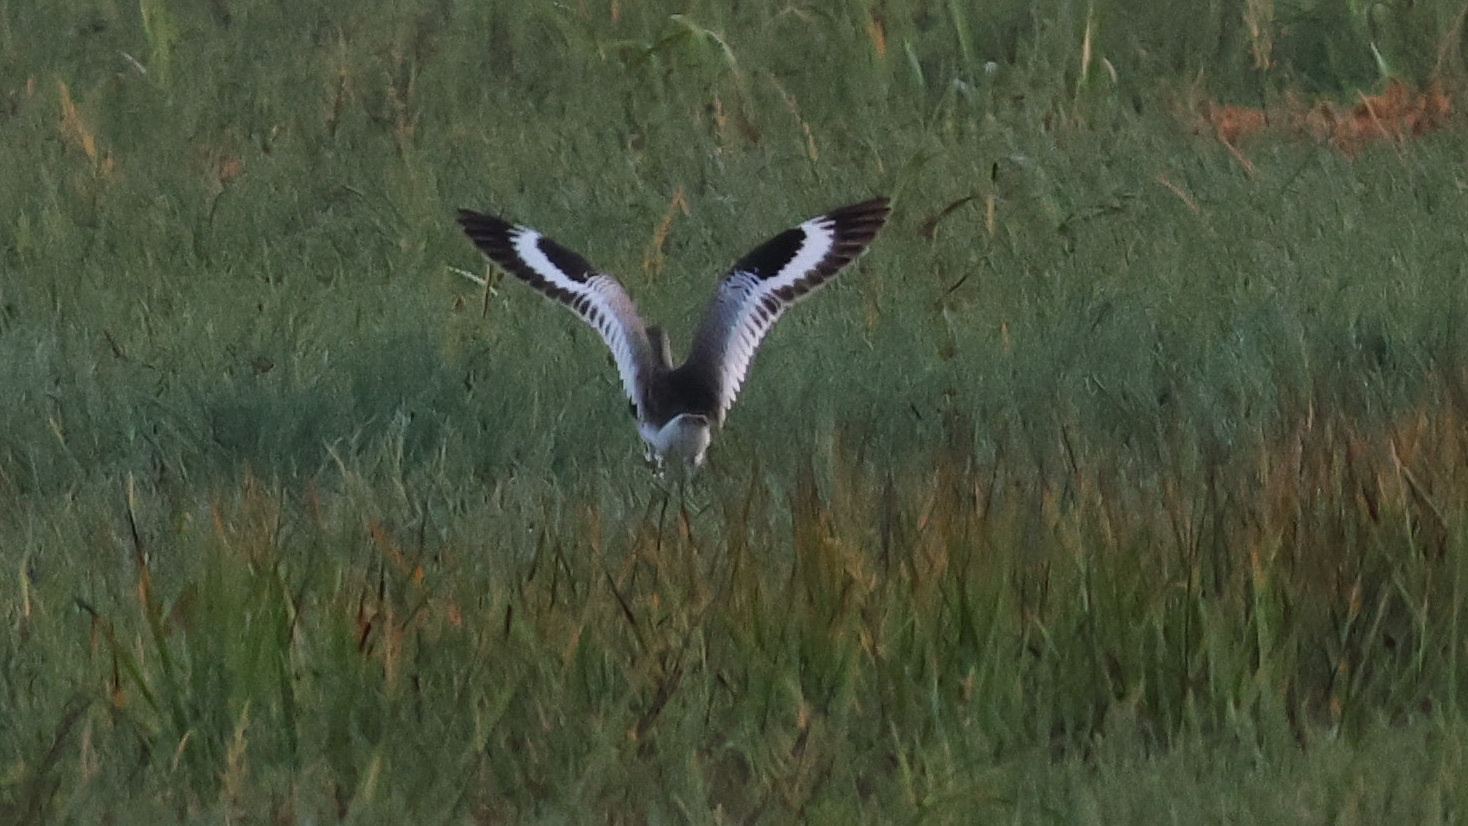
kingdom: Animalia
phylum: Chordata
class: Aves
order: Charadriiformes
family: Scolopacidae
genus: Tringa
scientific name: Tringa semipalmata
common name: Willet
